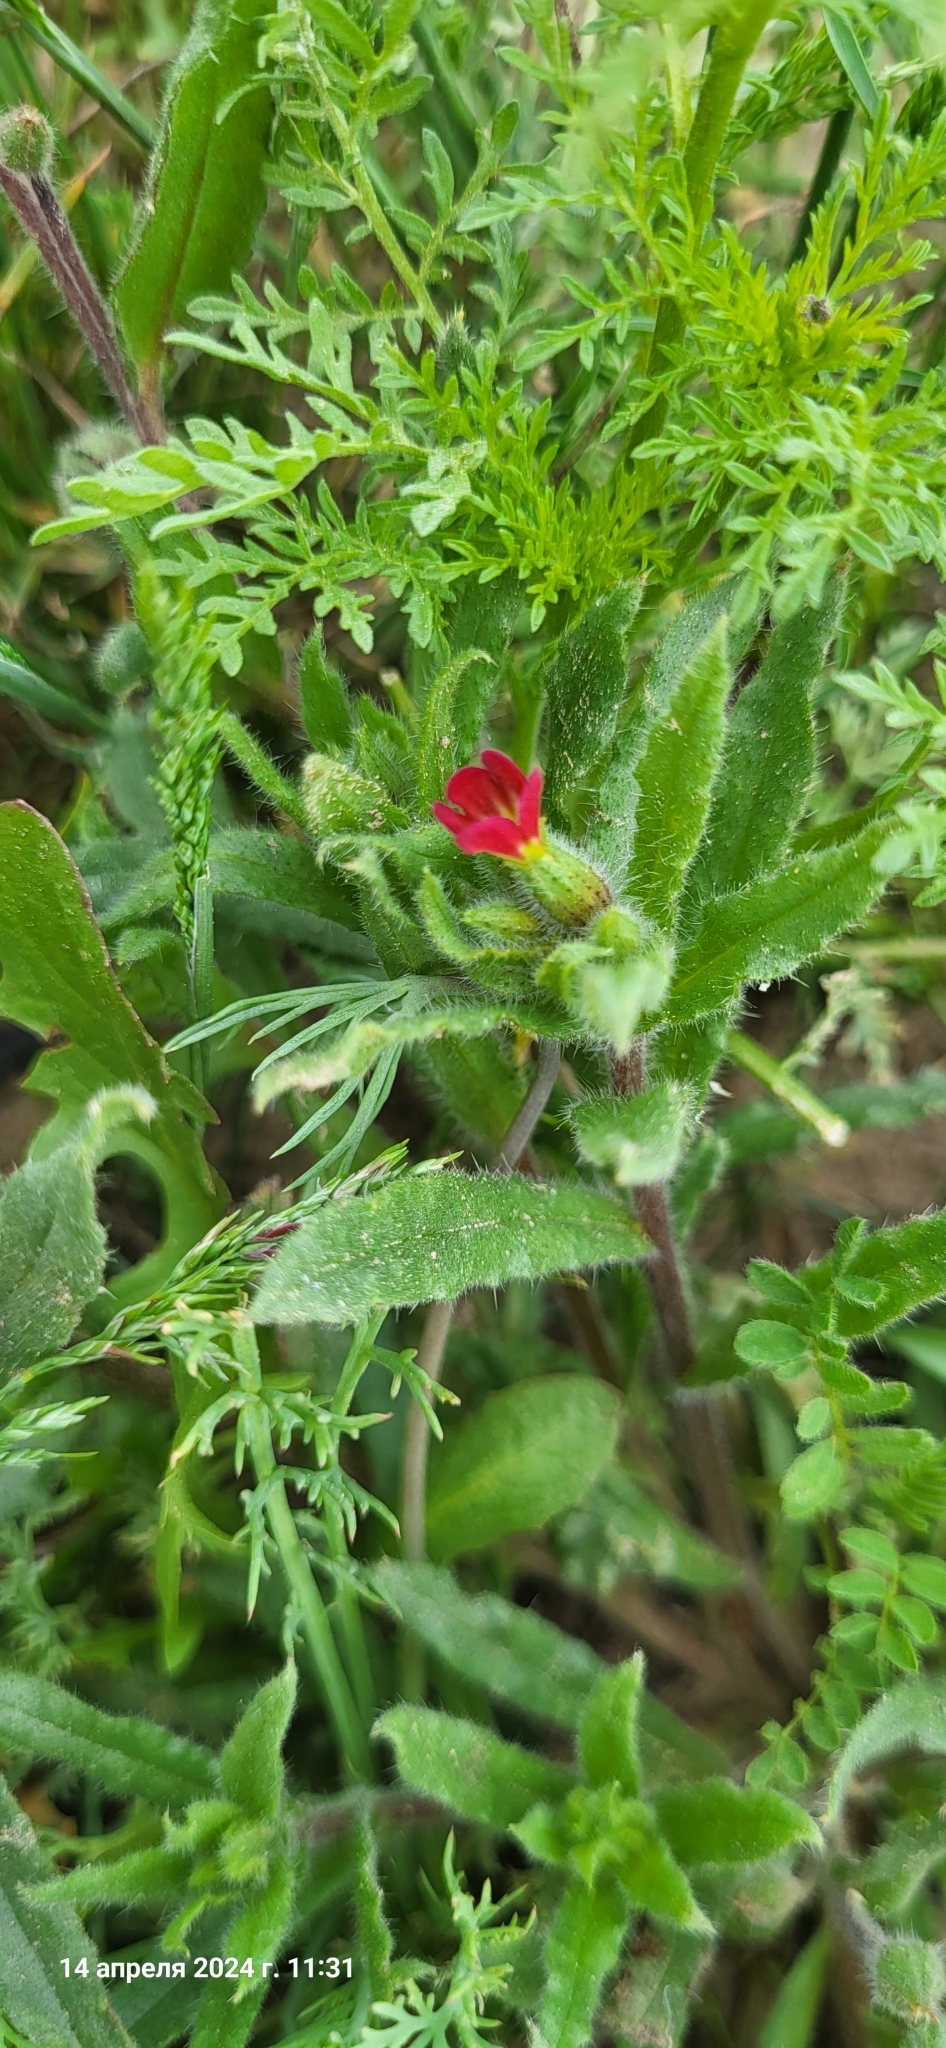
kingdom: Plantae
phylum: Tracheophyta
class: Magnoliopsida
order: Boraginales
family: Boraginaceae
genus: Nonea
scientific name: Nonea caspica
